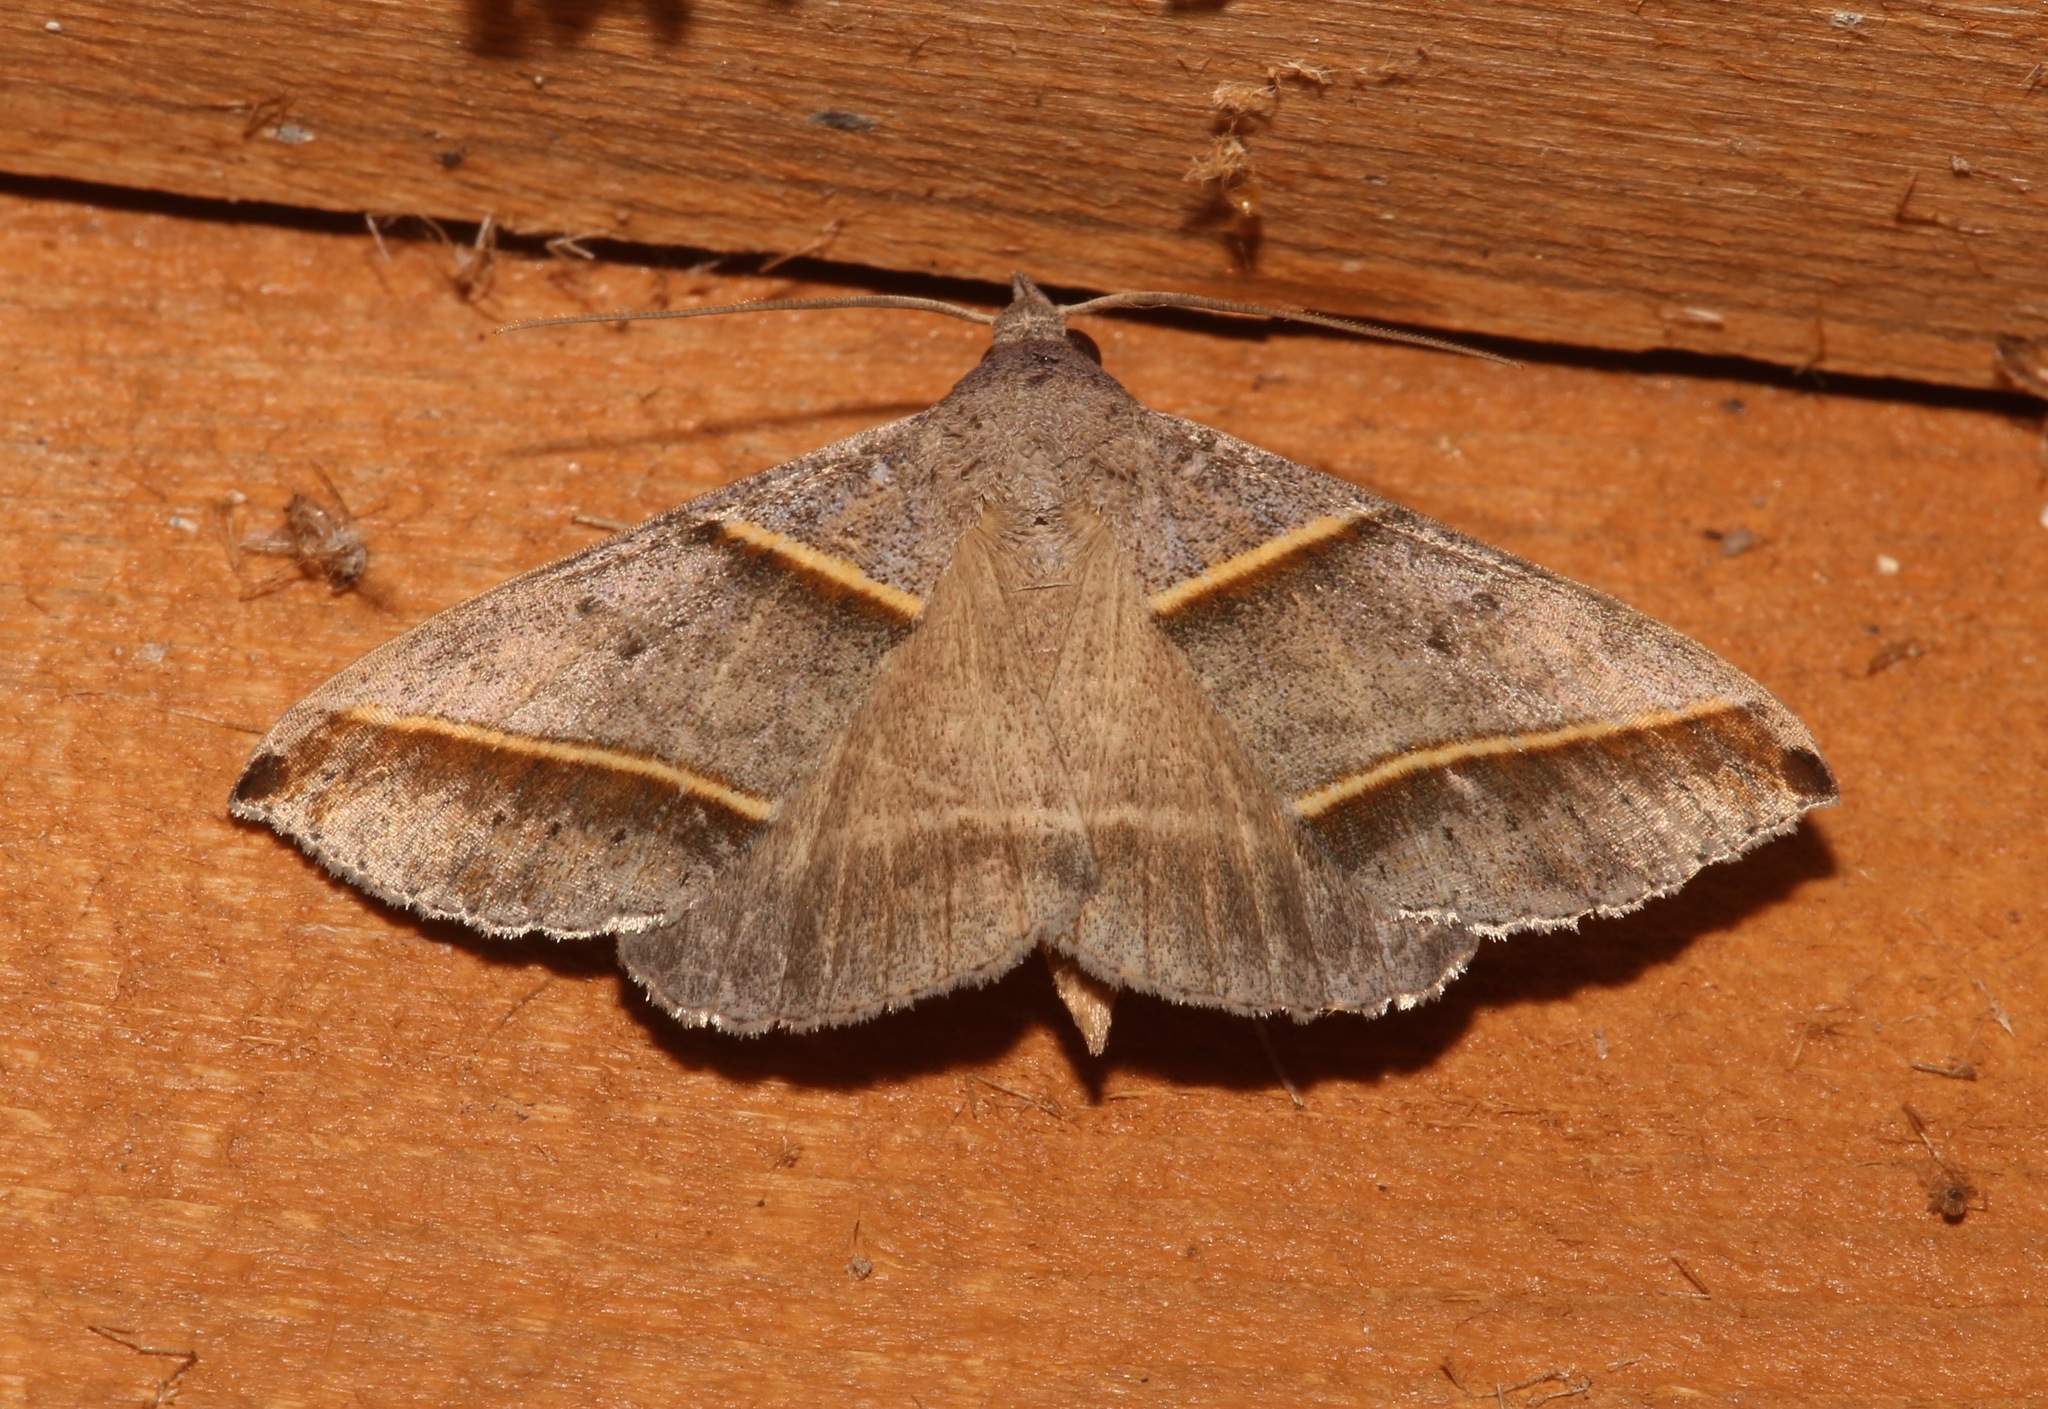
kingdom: Animalia
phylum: Arthropoda
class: Insecta
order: Lepidoptera
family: Erebidae
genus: Ptichodis
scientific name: Ptichodis vinculum
